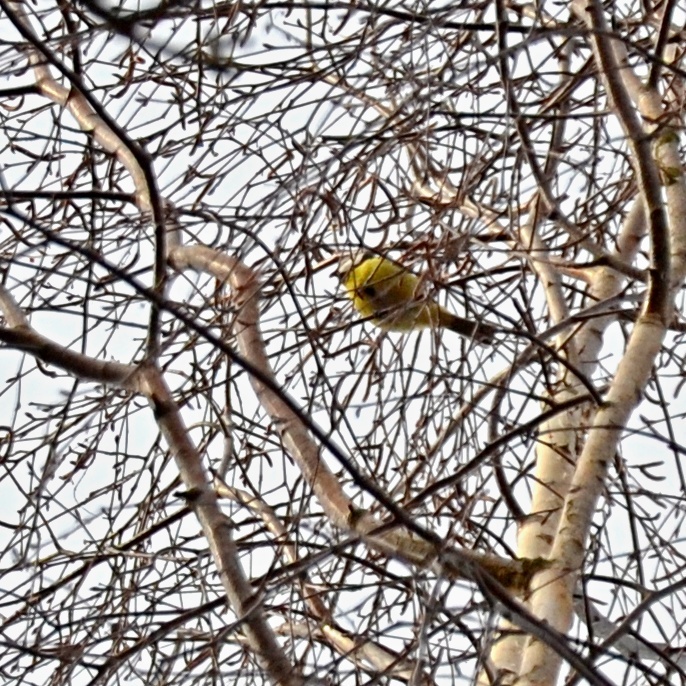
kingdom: Animalia
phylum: Chordata
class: Aves
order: Passeriformes
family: Paridae
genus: Cyanistes
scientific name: Cyanistes caeruleus
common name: Eurasian blue tit
